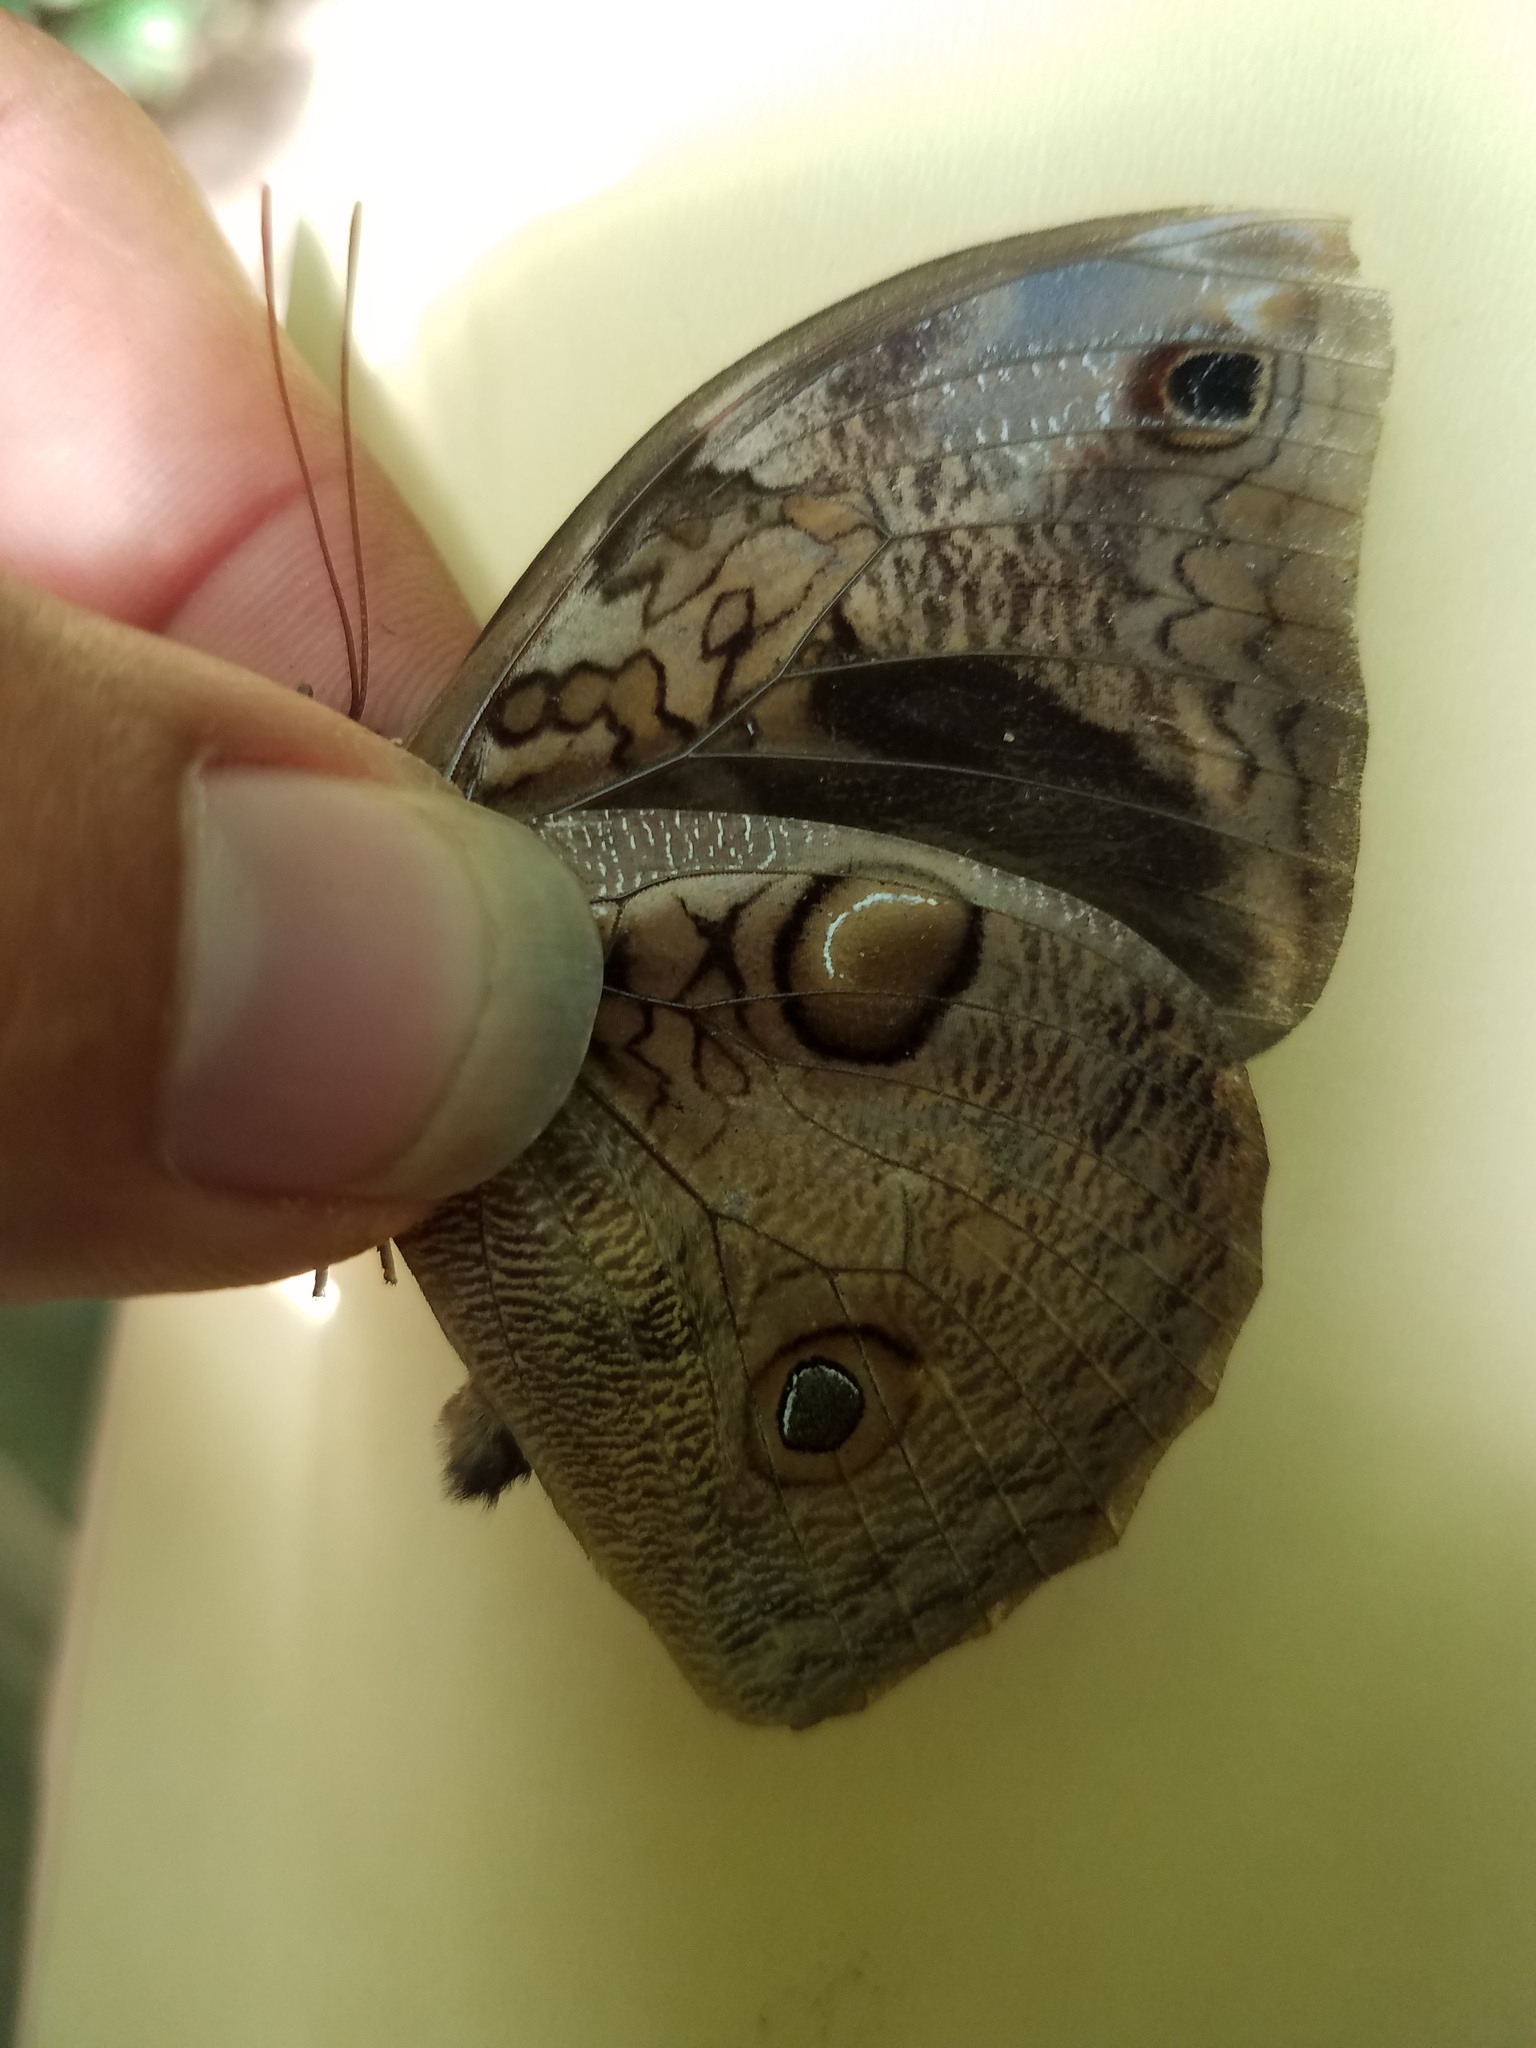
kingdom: Animalia
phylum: Arthropoda
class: Insecta
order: Lepidoptera
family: Nymphalidae
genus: Opsiphanes
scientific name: Opsiphanes cassiae
